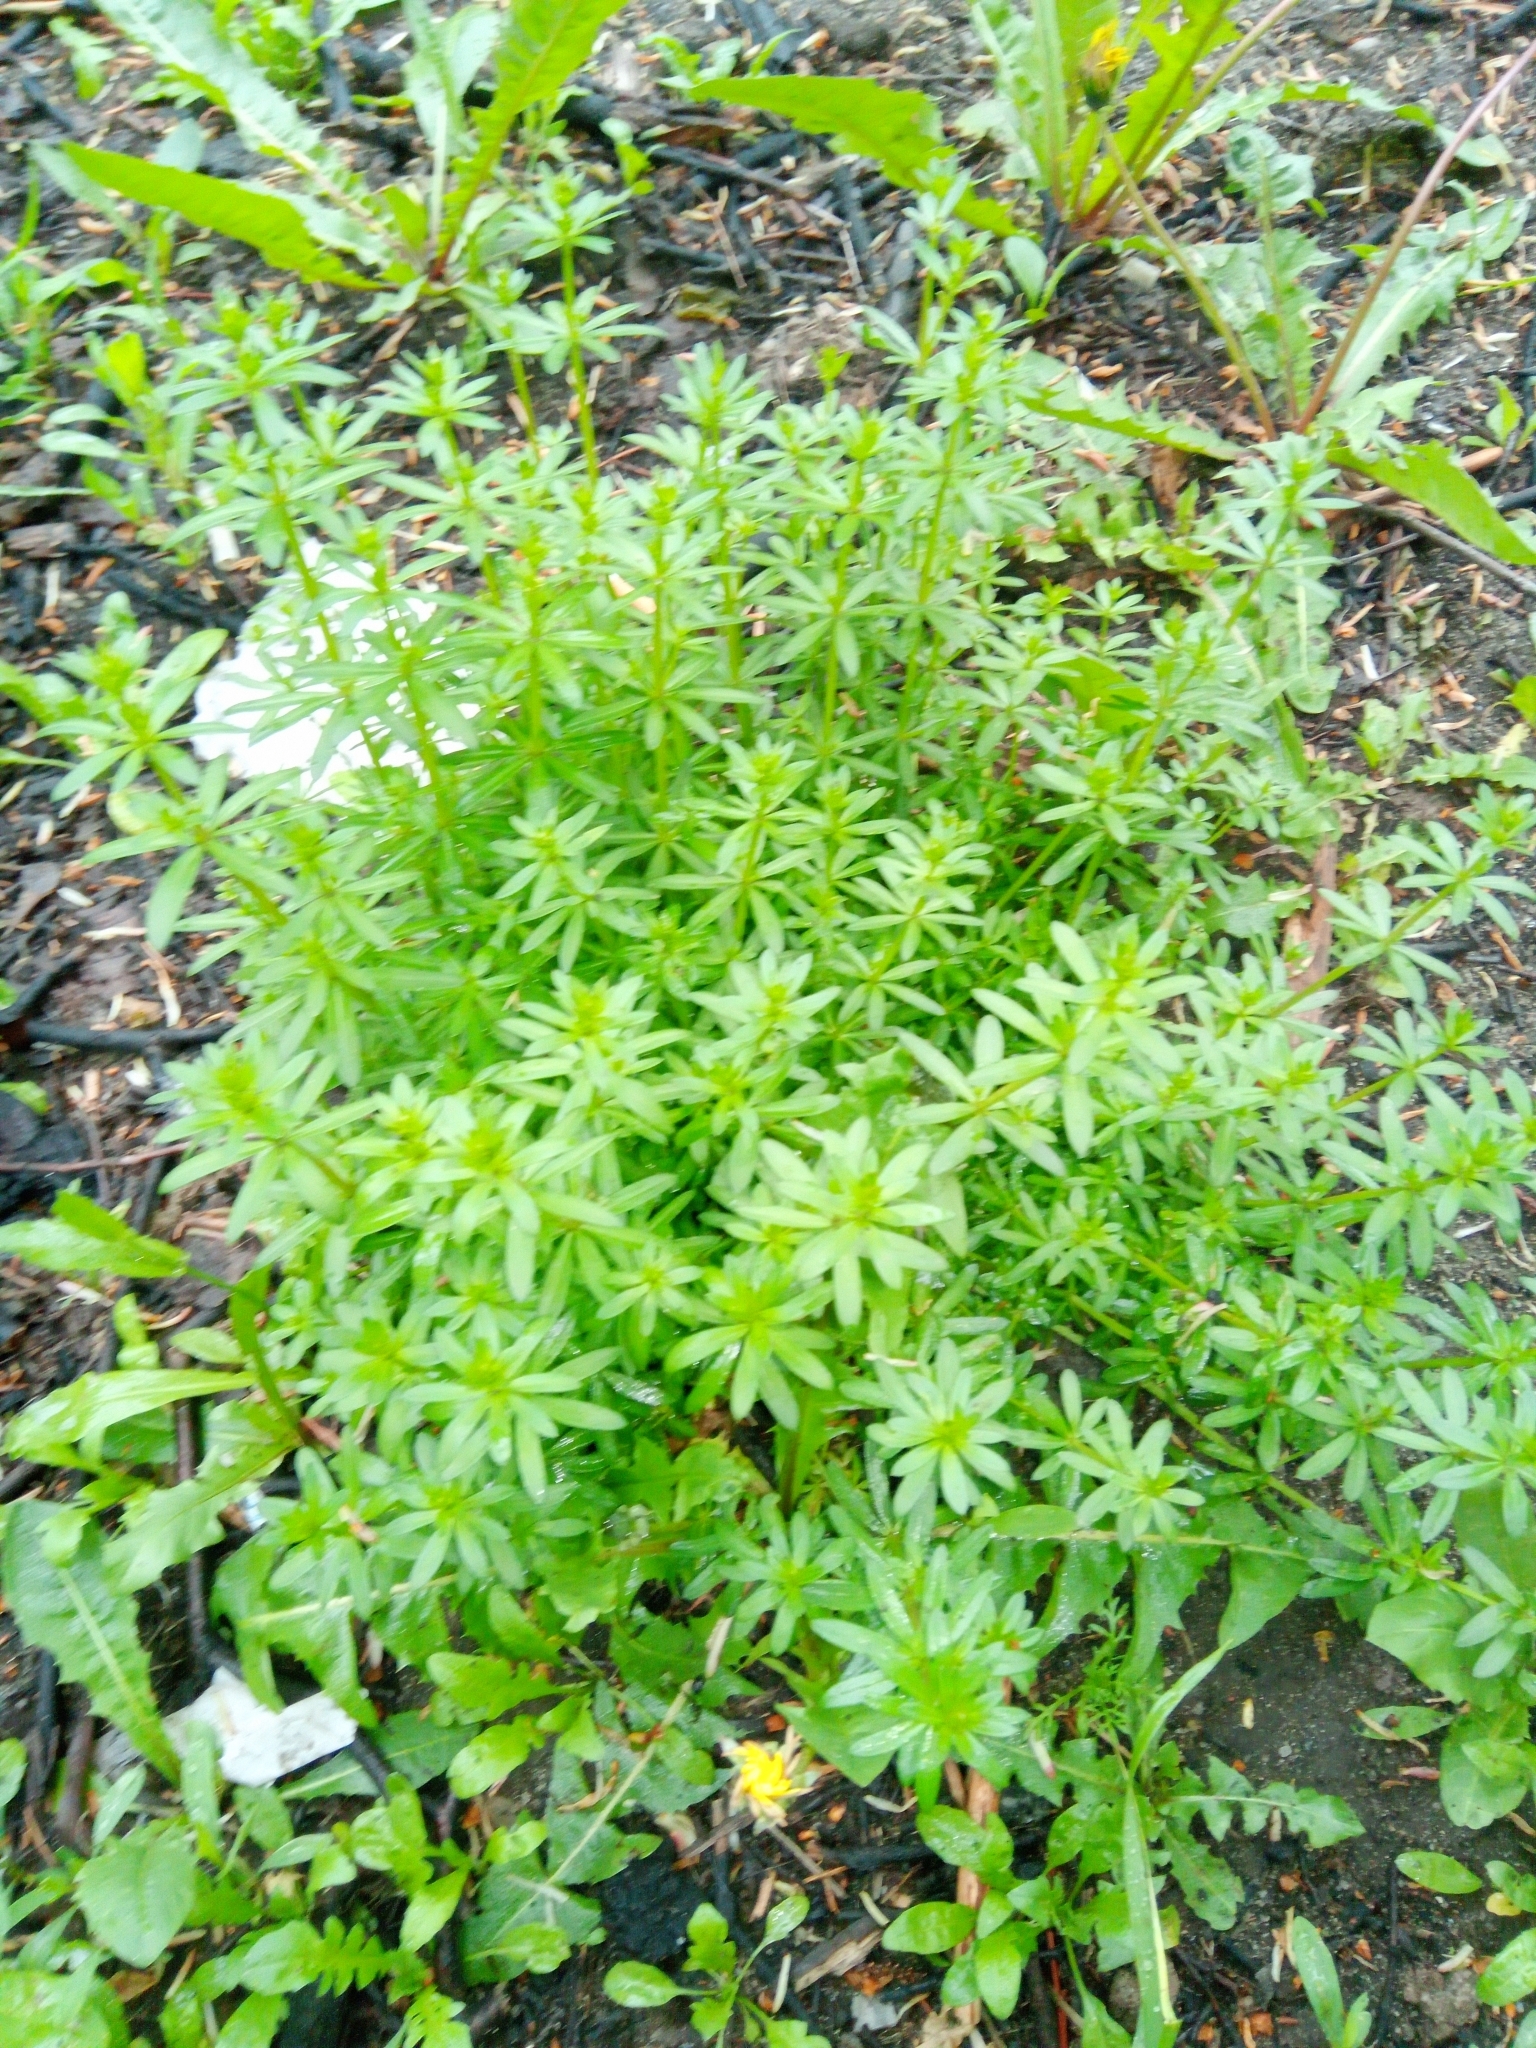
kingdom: Plantae
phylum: Tracheophyta
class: Magnoliopsida
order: Gentianales
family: Rubiaceae
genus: Galium
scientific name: Galium mollugo
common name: Hedge bedstraw
